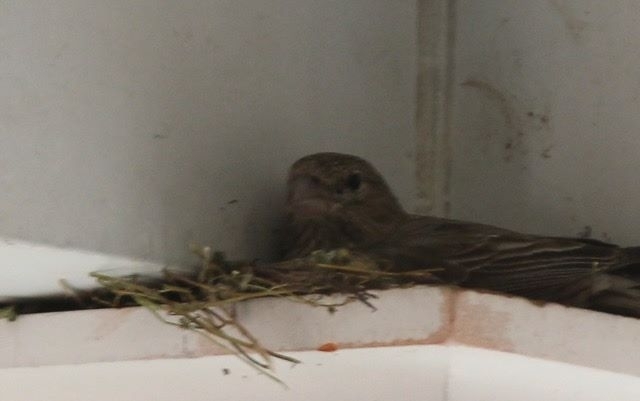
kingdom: Animalia
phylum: Chordata
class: Aves
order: Passeriformes
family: Fringillidae
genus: Haemorhous
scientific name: Haemorhous mexicanus
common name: House finch
